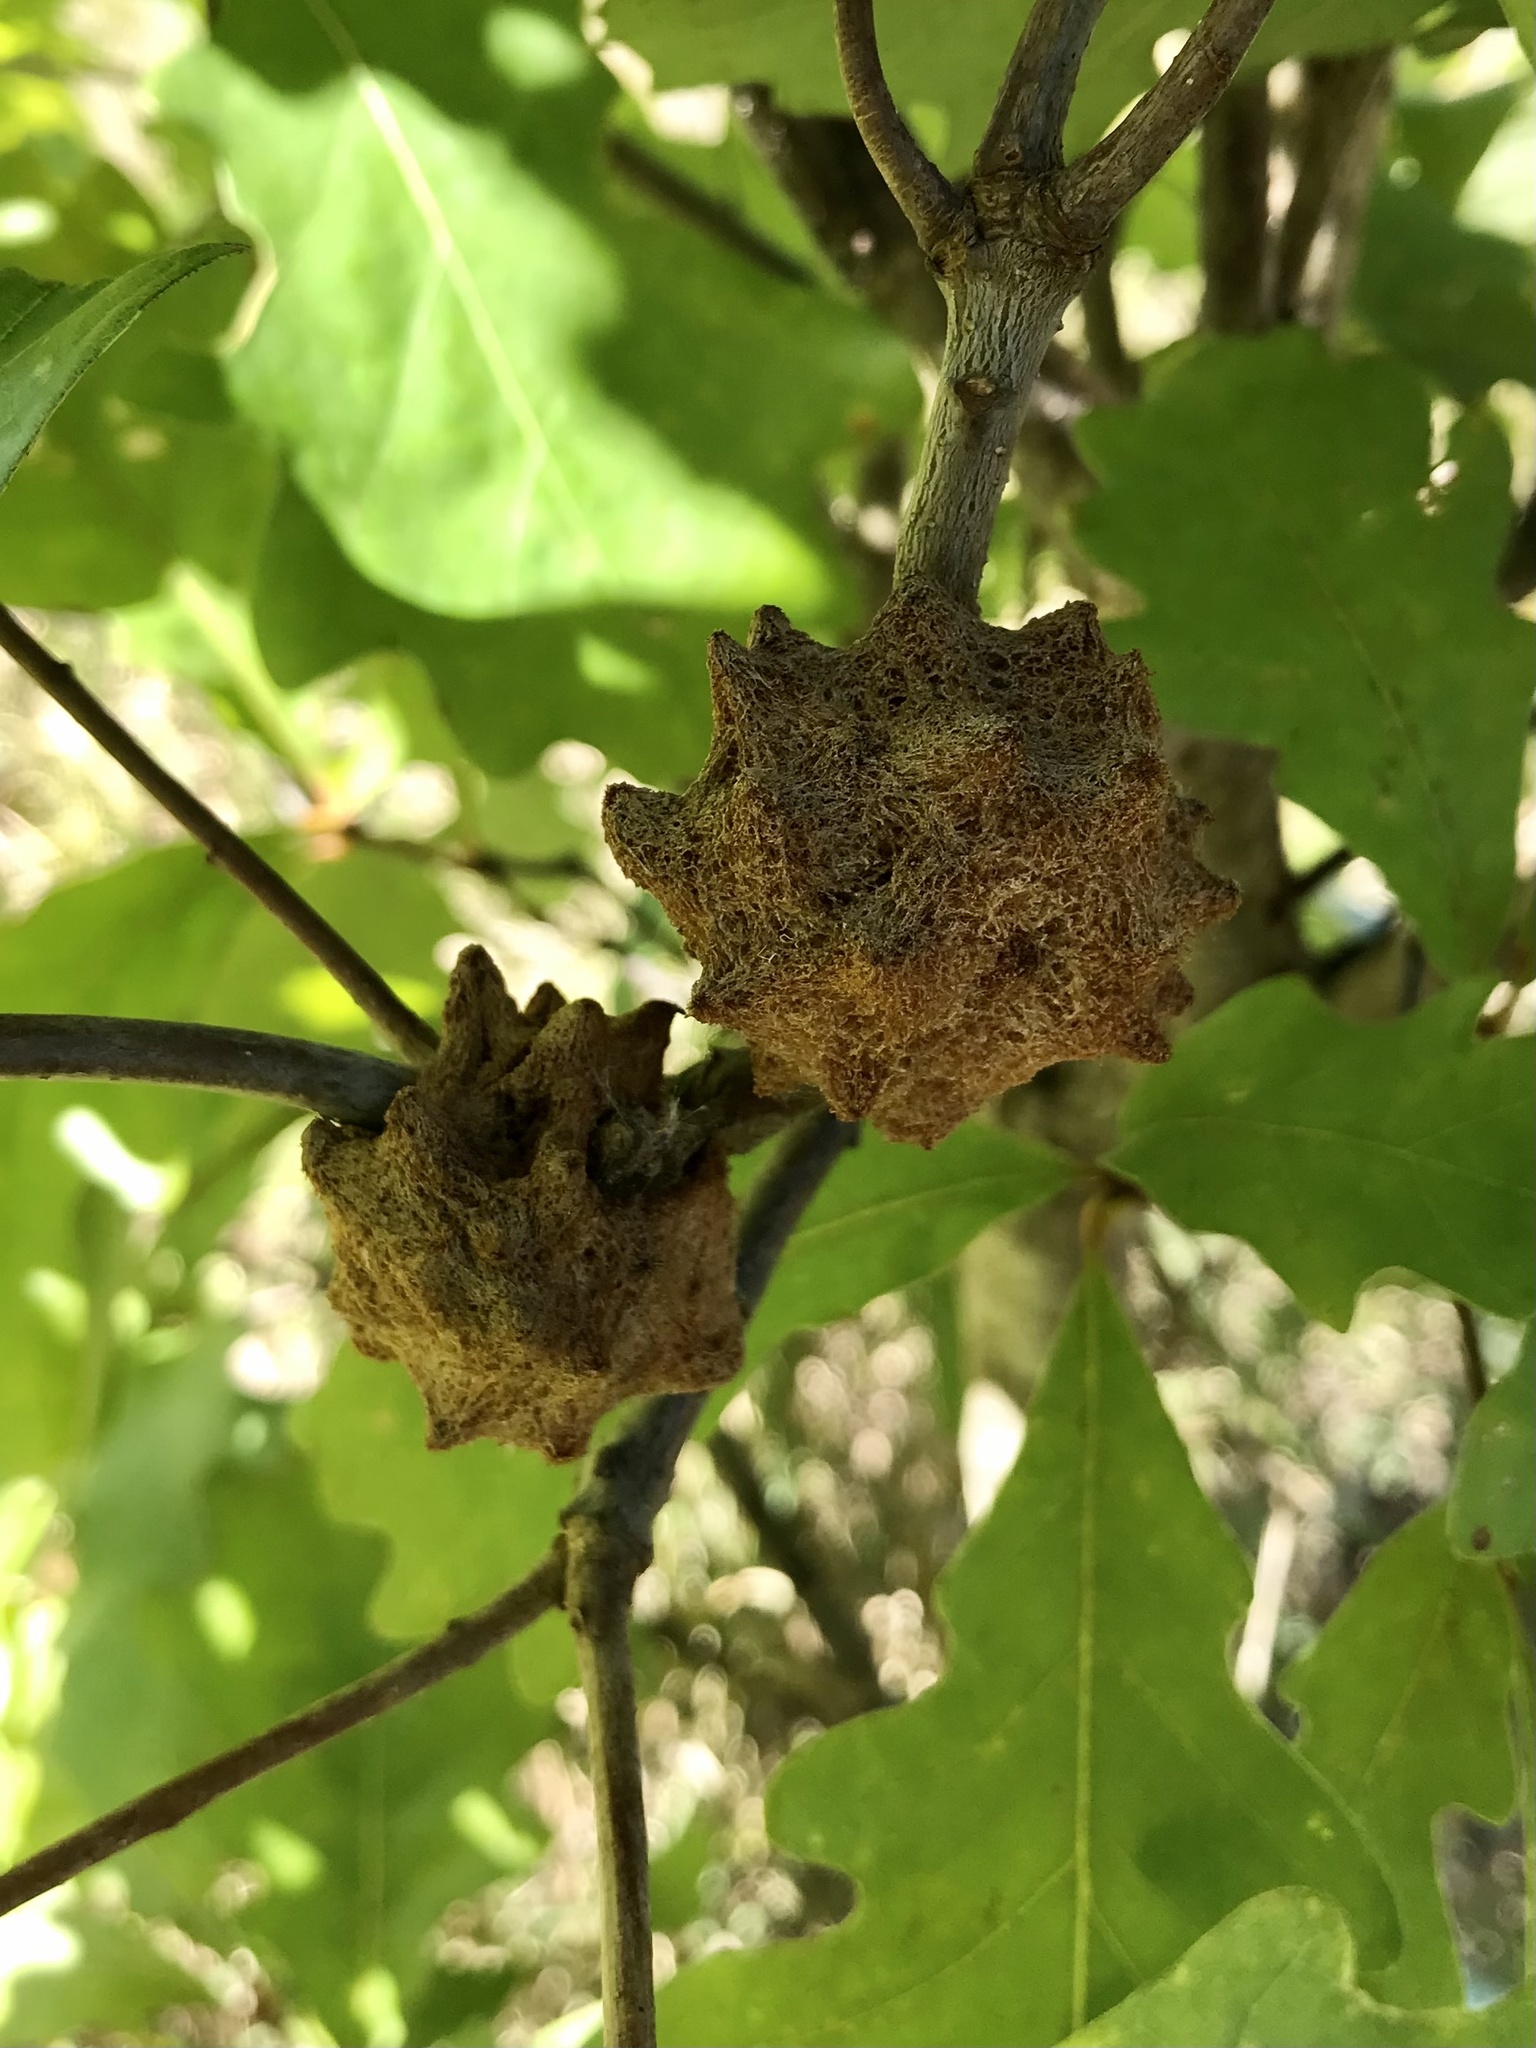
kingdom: Animalia
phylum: Arthropoda
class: Insecta
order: Hymenoptera
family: Cynipidae
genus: Callirhytis
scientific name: Callirhytis
